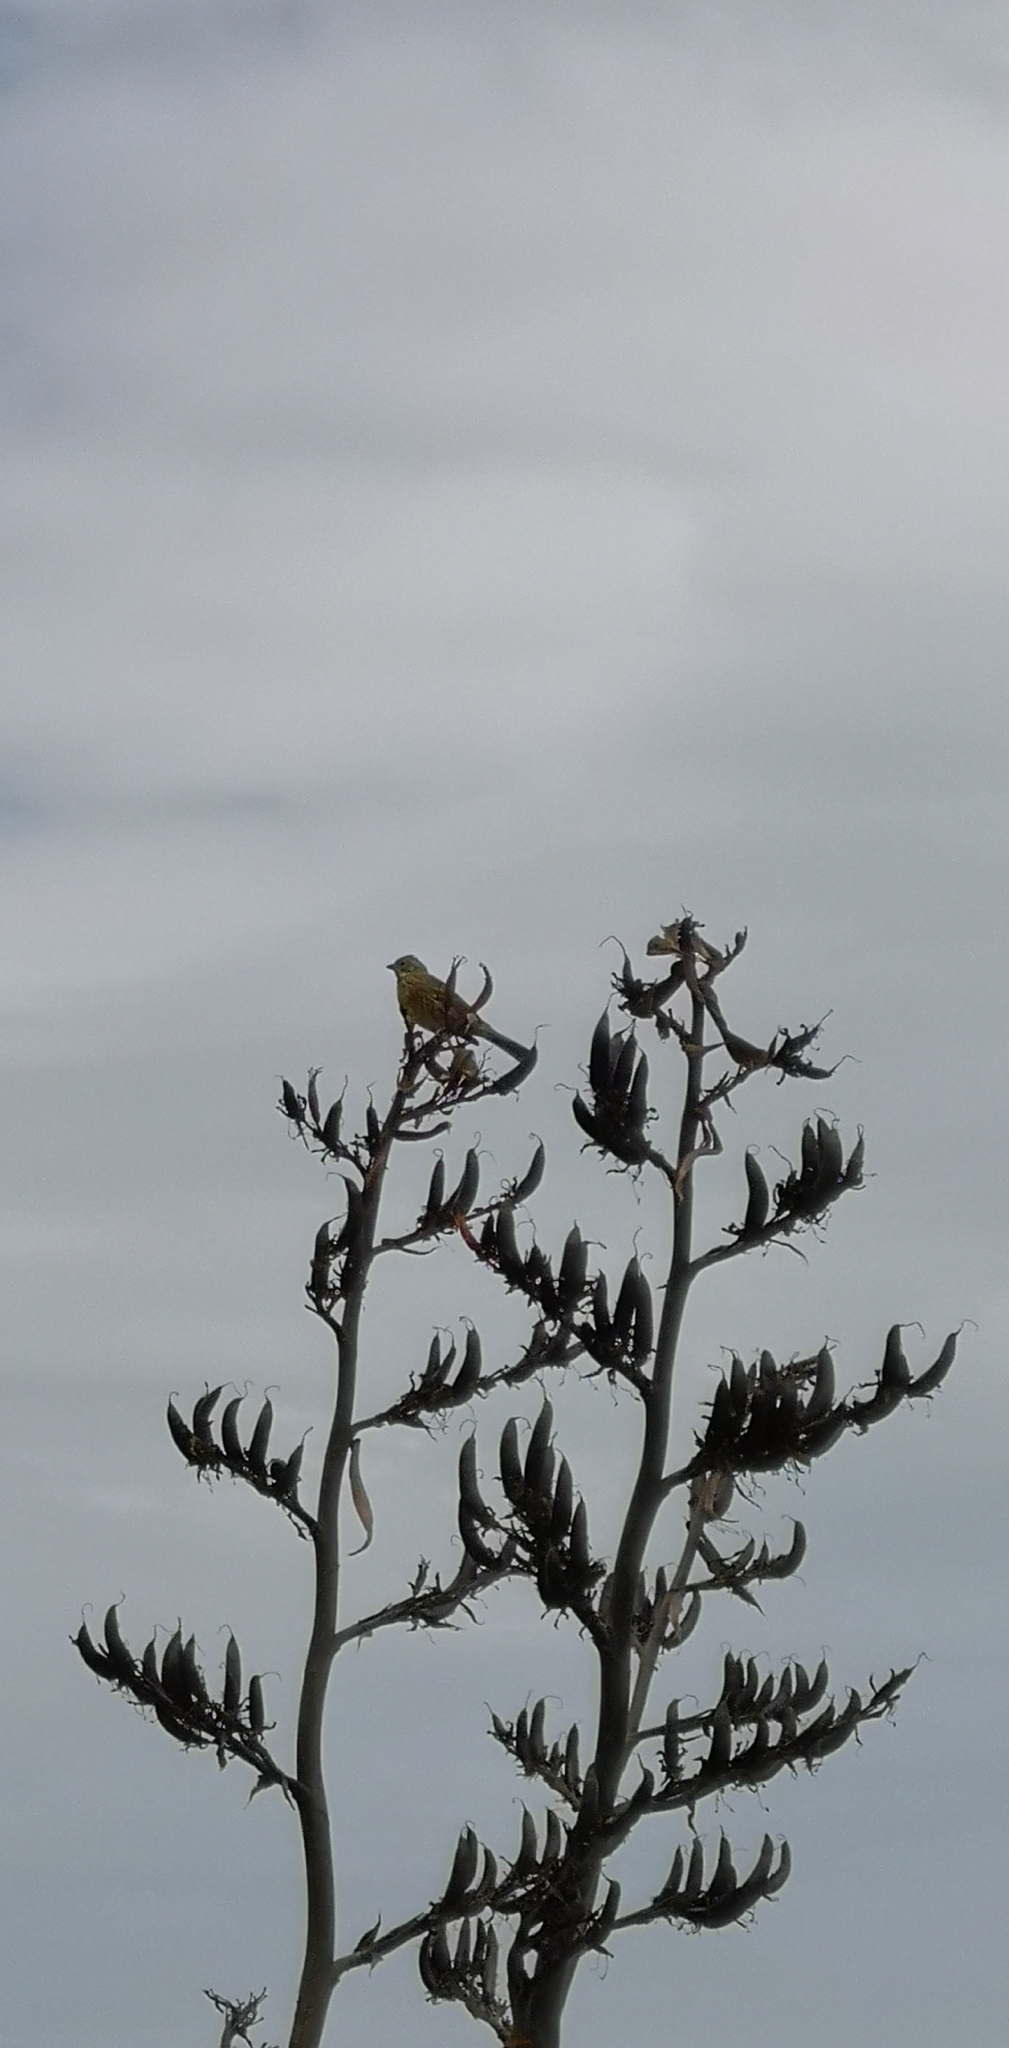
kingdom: Animalia
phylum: Chordata
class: Aves
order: Passeriformes
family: Emberizidae
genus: Emberiza
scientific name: Emberiza citrinella
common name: Yellowhammer
